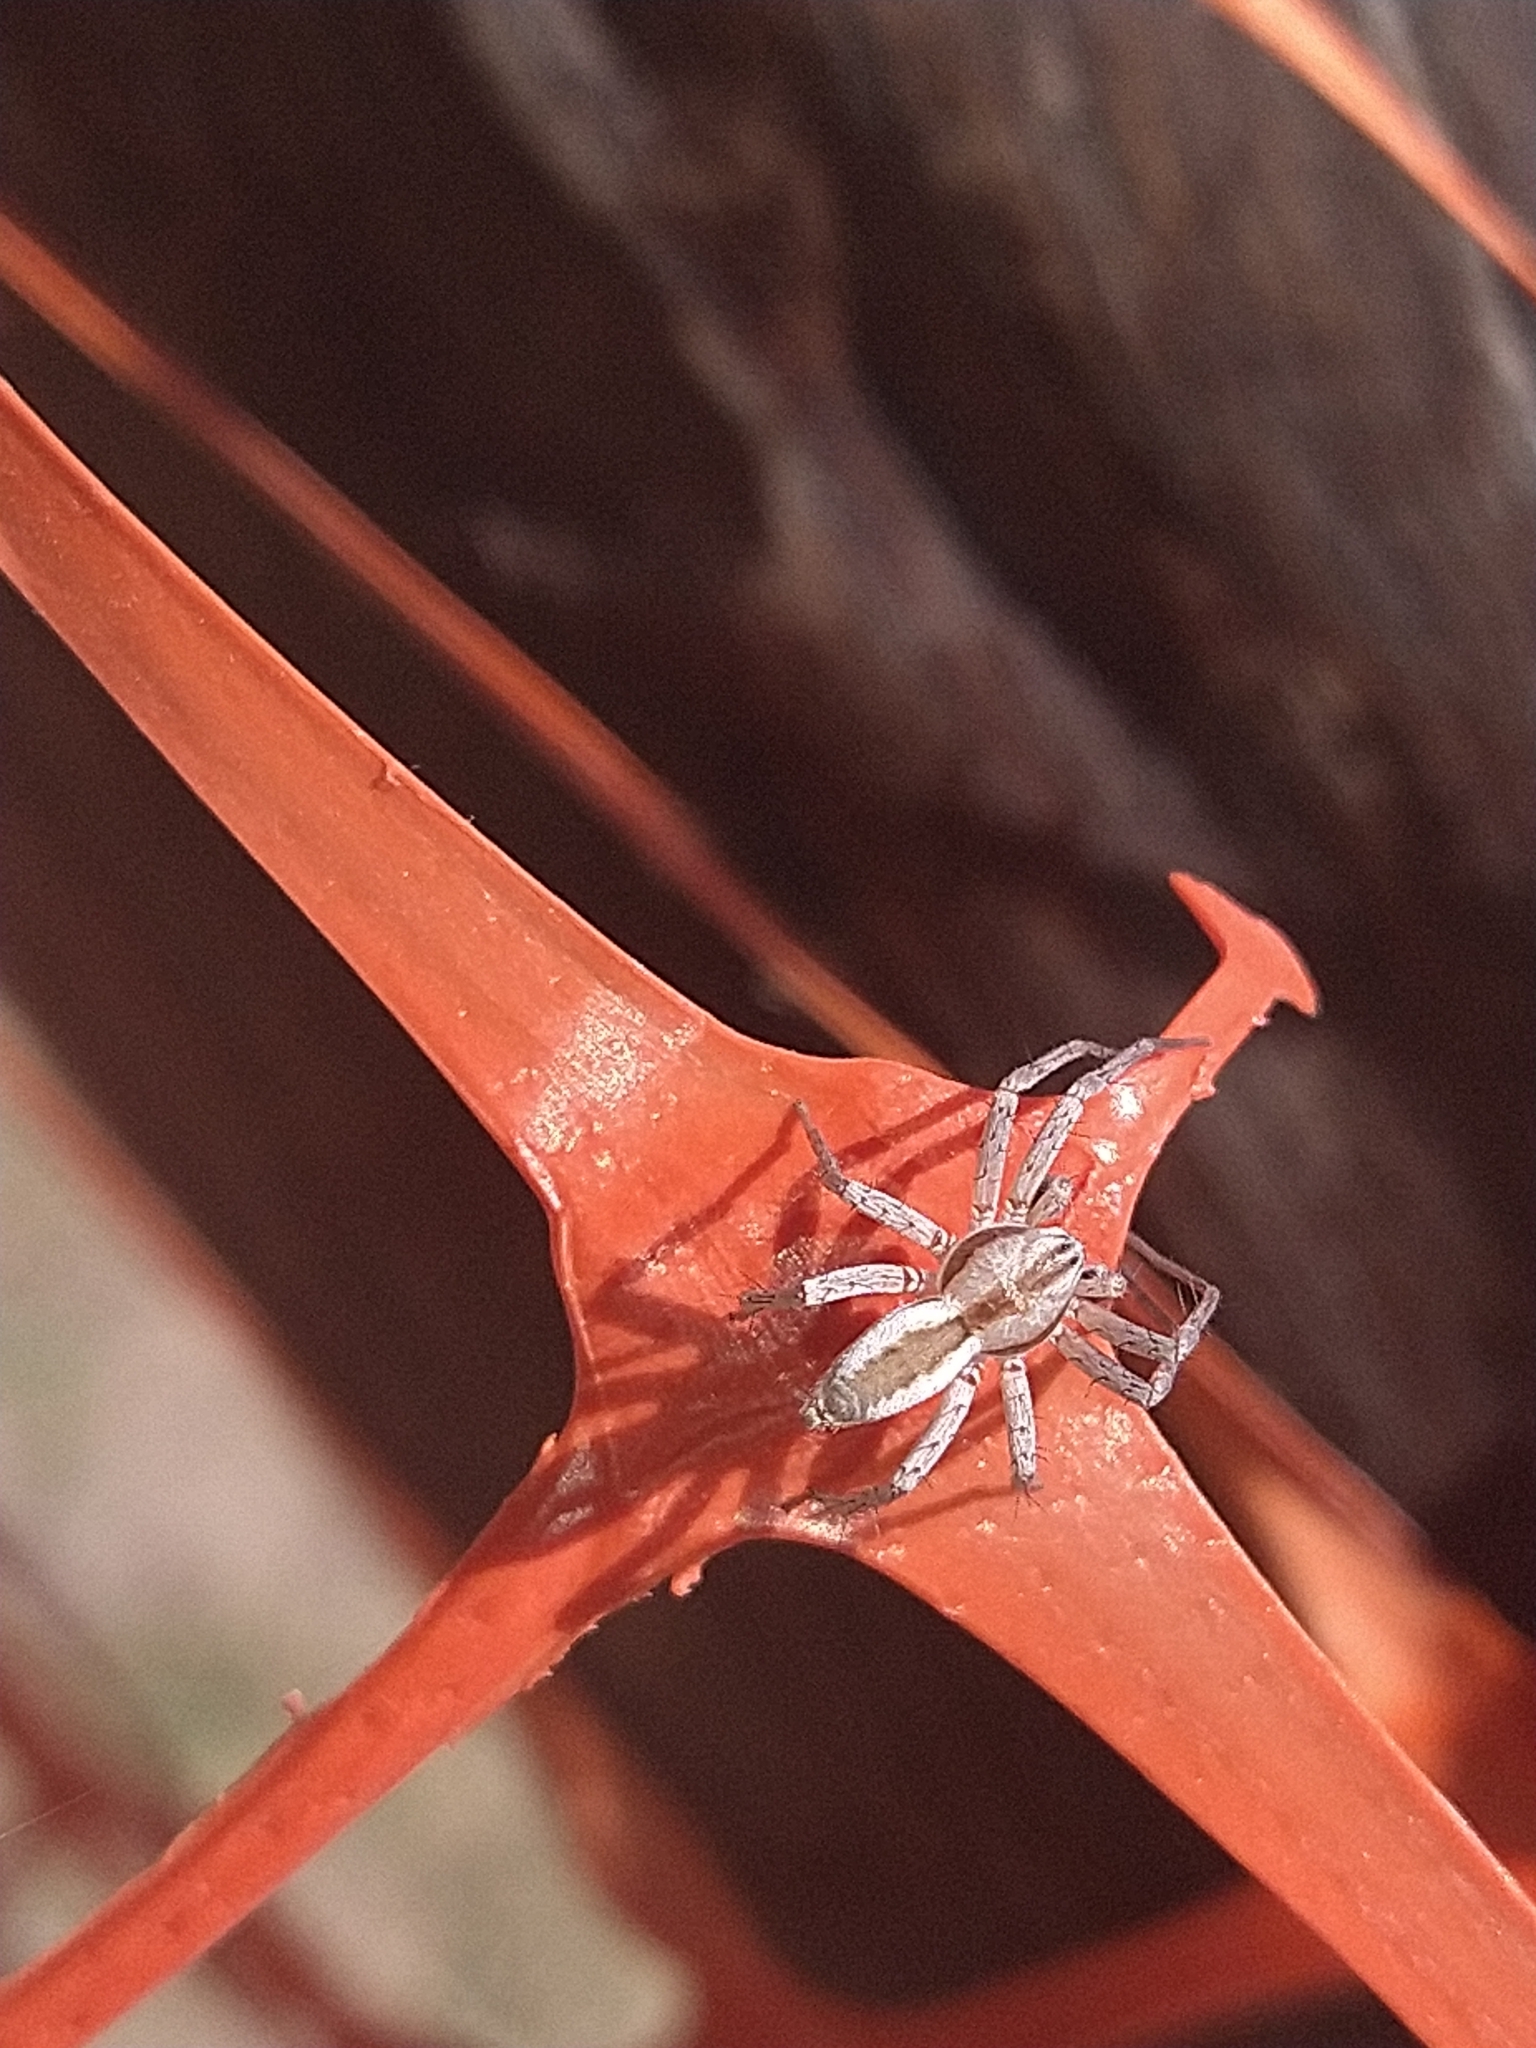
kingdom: Animalia
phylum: Arthropoda
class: Arachnida
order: Araneae
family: Anyphaenidae
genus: Arachosia
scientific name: Arachosia praesignis
